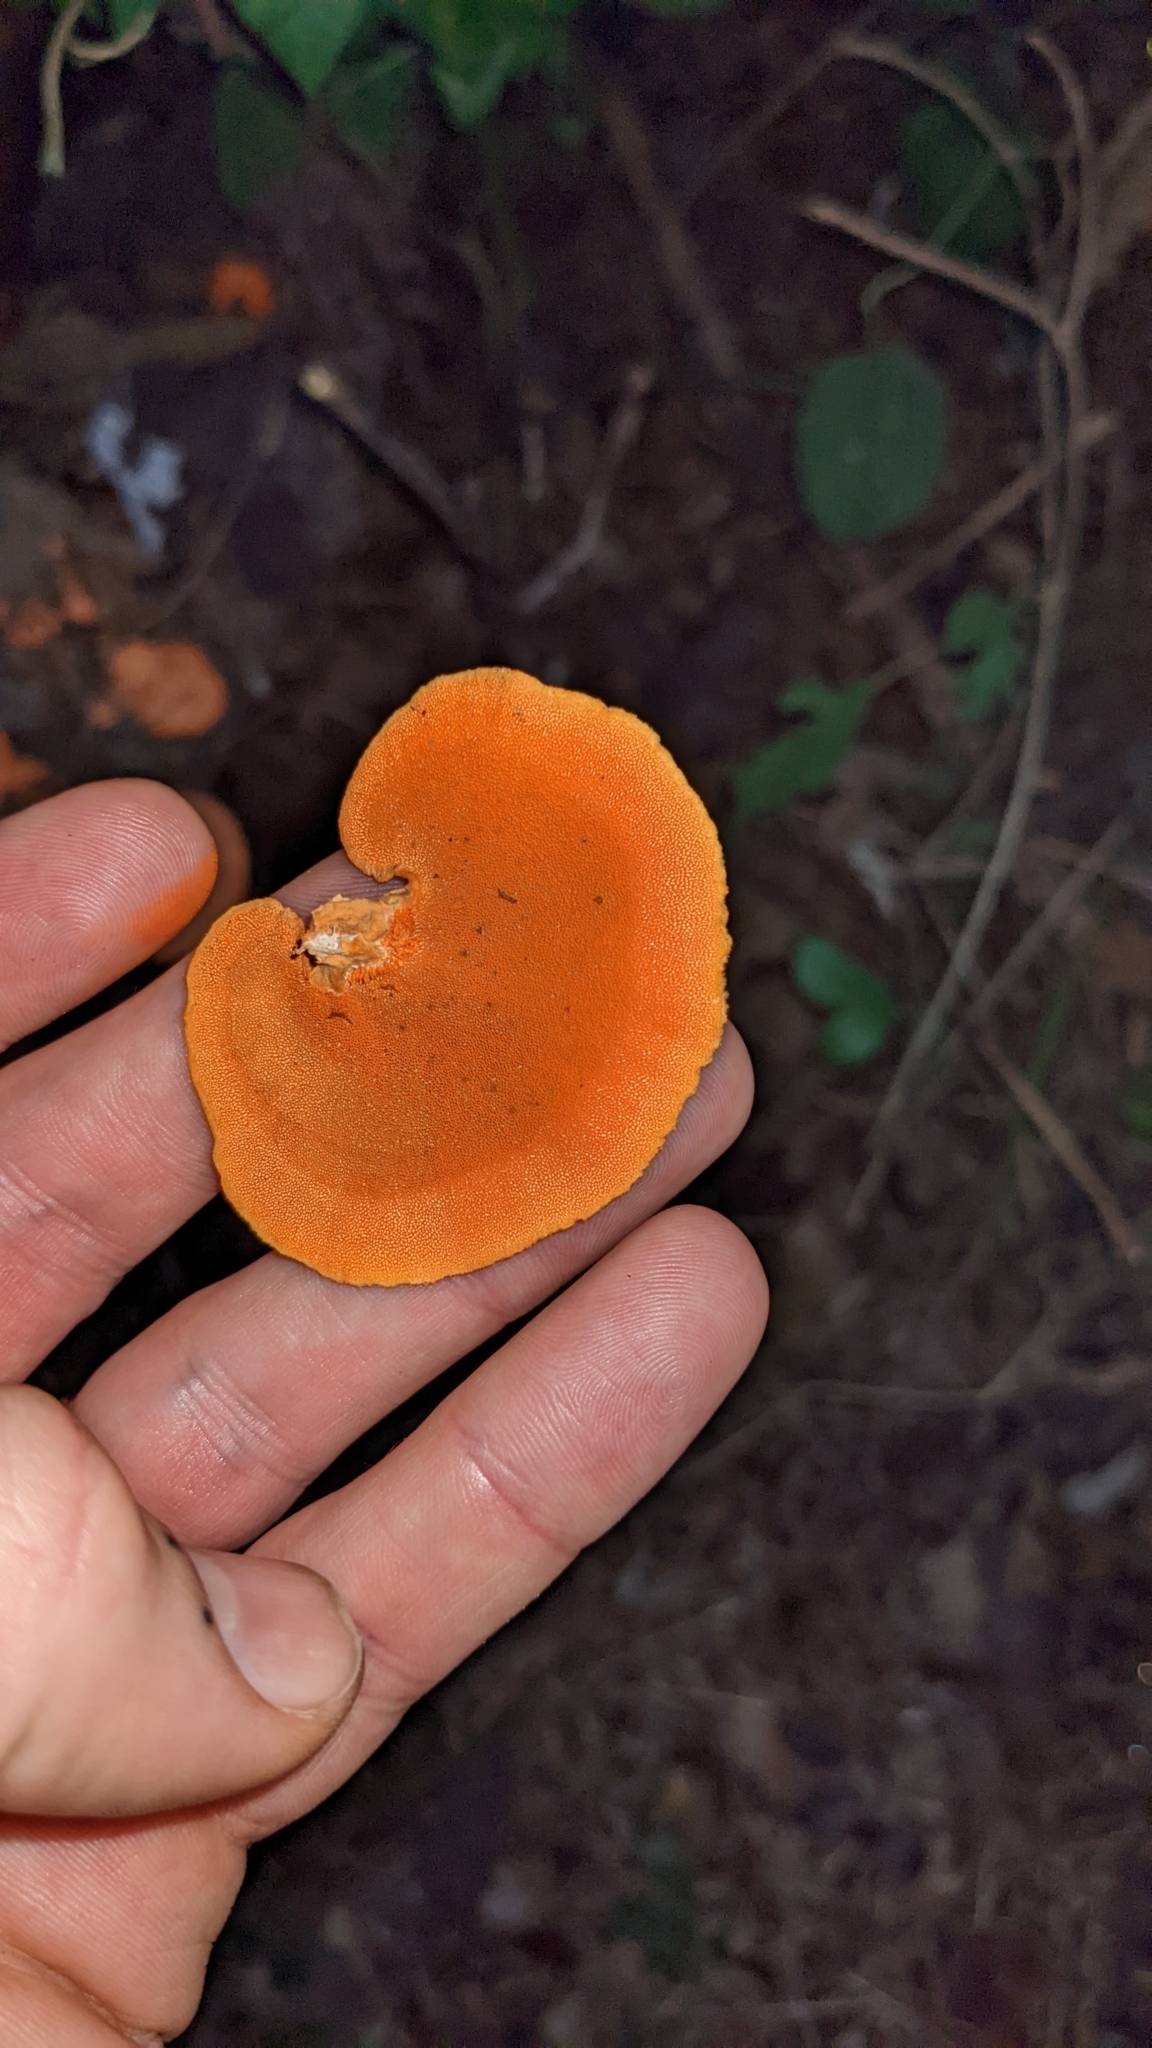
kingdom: Fungi
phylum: Basidiomycota
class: Agaricomycetes
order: Polyporales
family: Polyporaceae
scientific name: Polyporaceae
